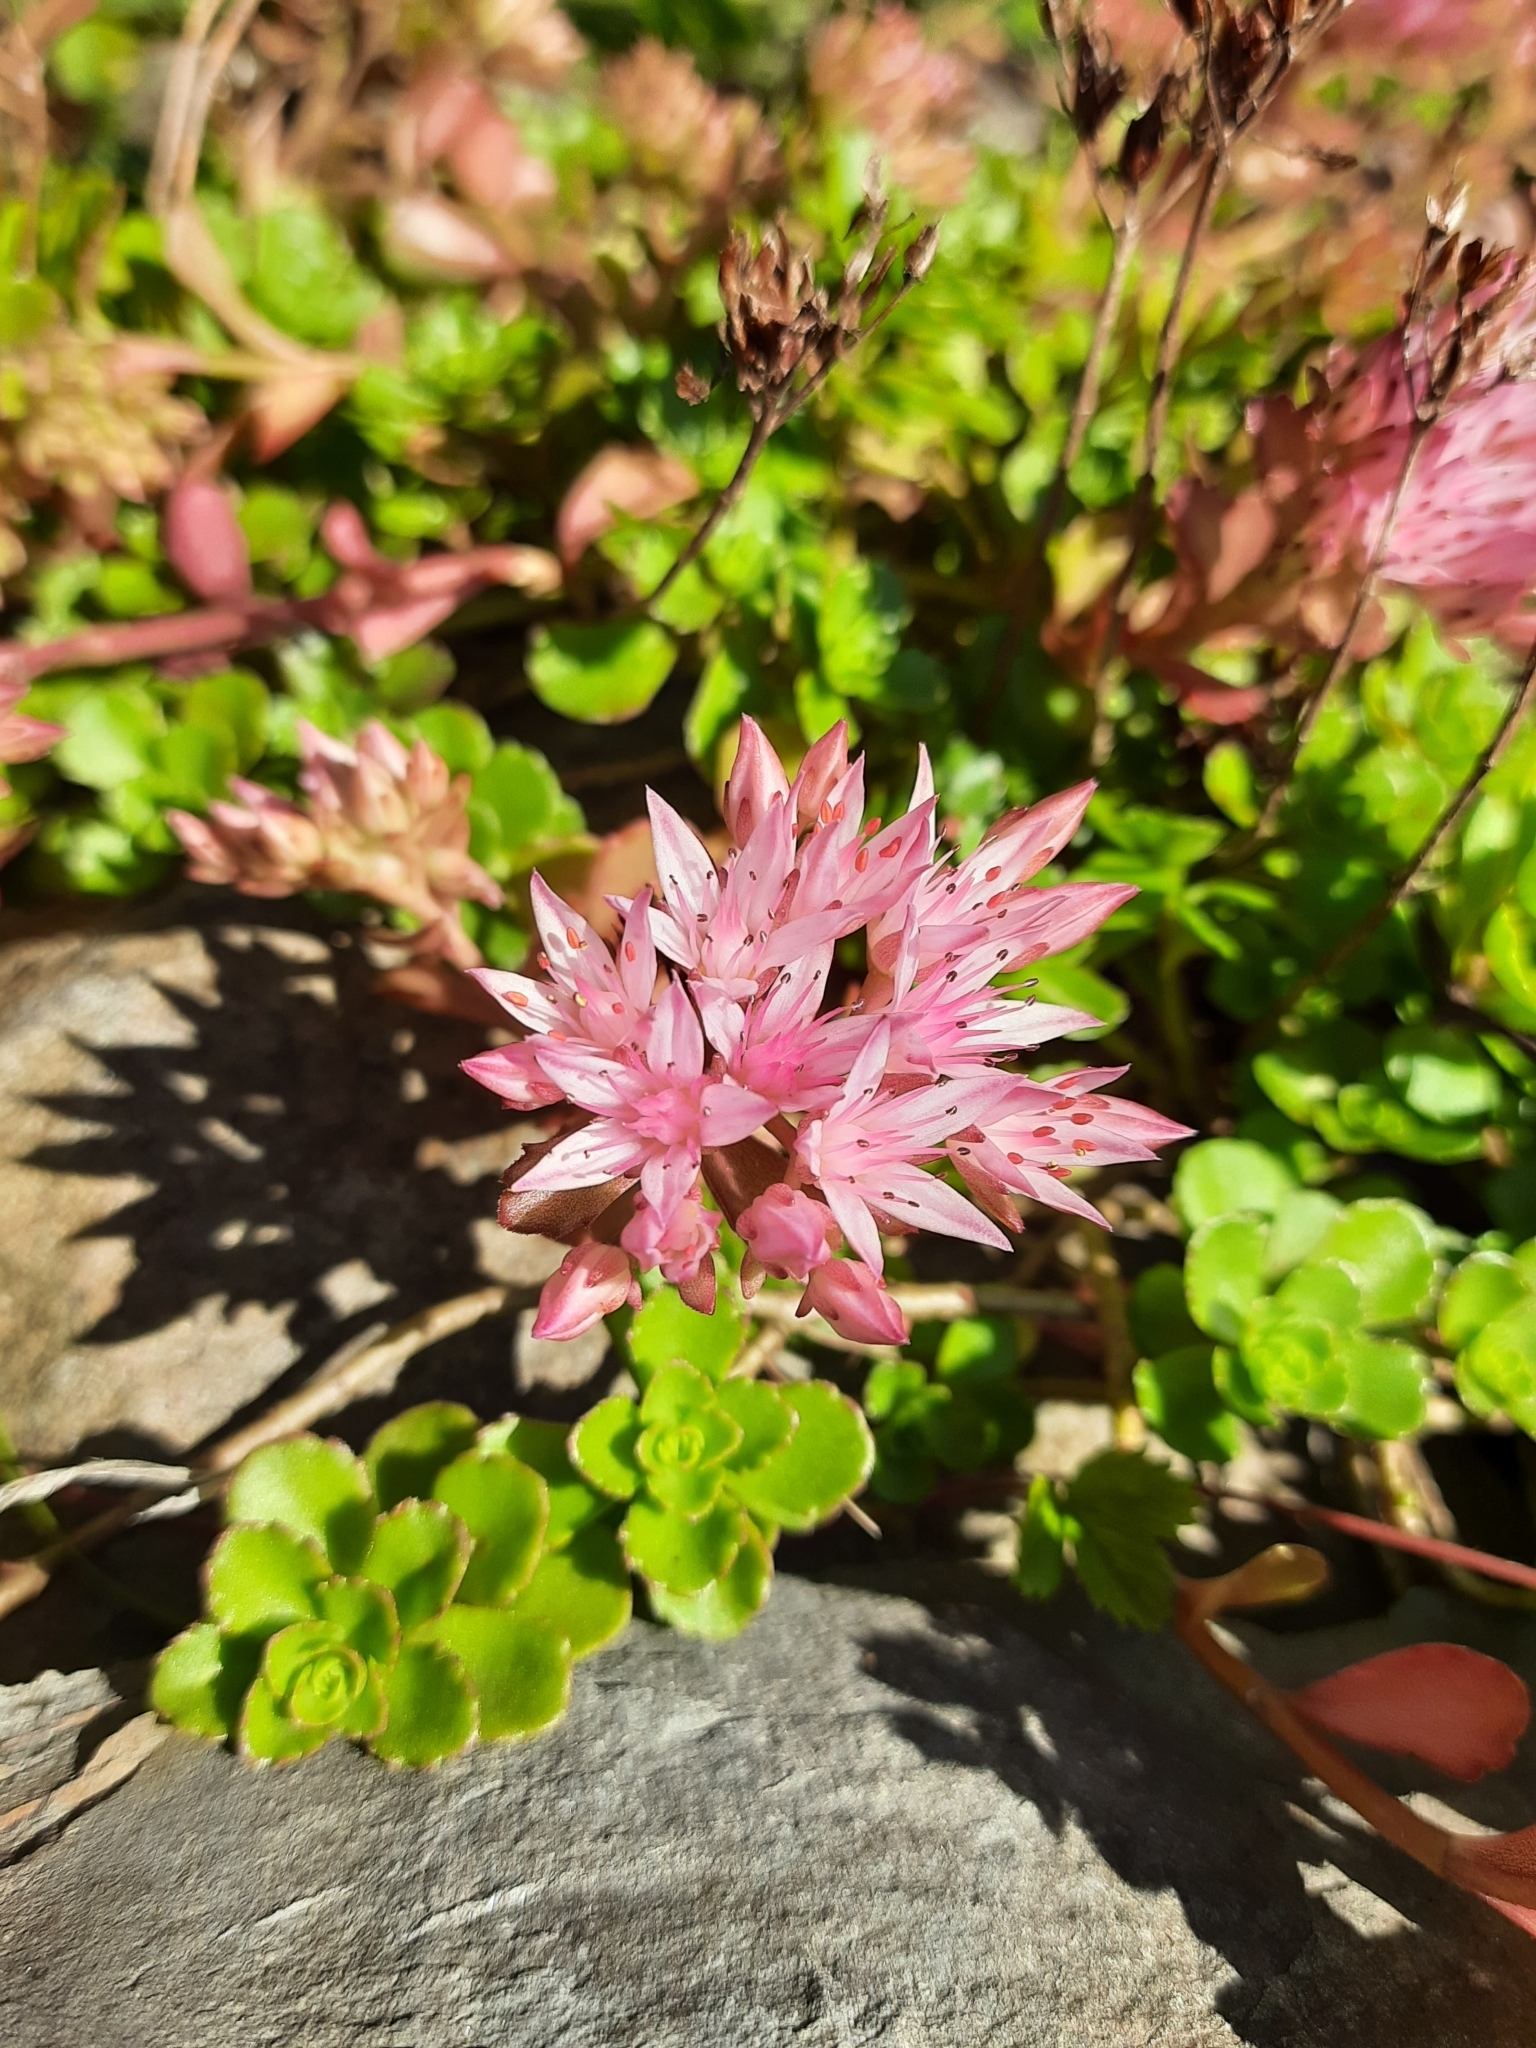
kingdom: Plantae
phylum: Tracheophyta
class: Magnoliopsida
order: Saxifragales
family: Crassulaceae
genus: Phedimus
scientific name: Phedimus spurius
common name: Caucasian stonecrop
